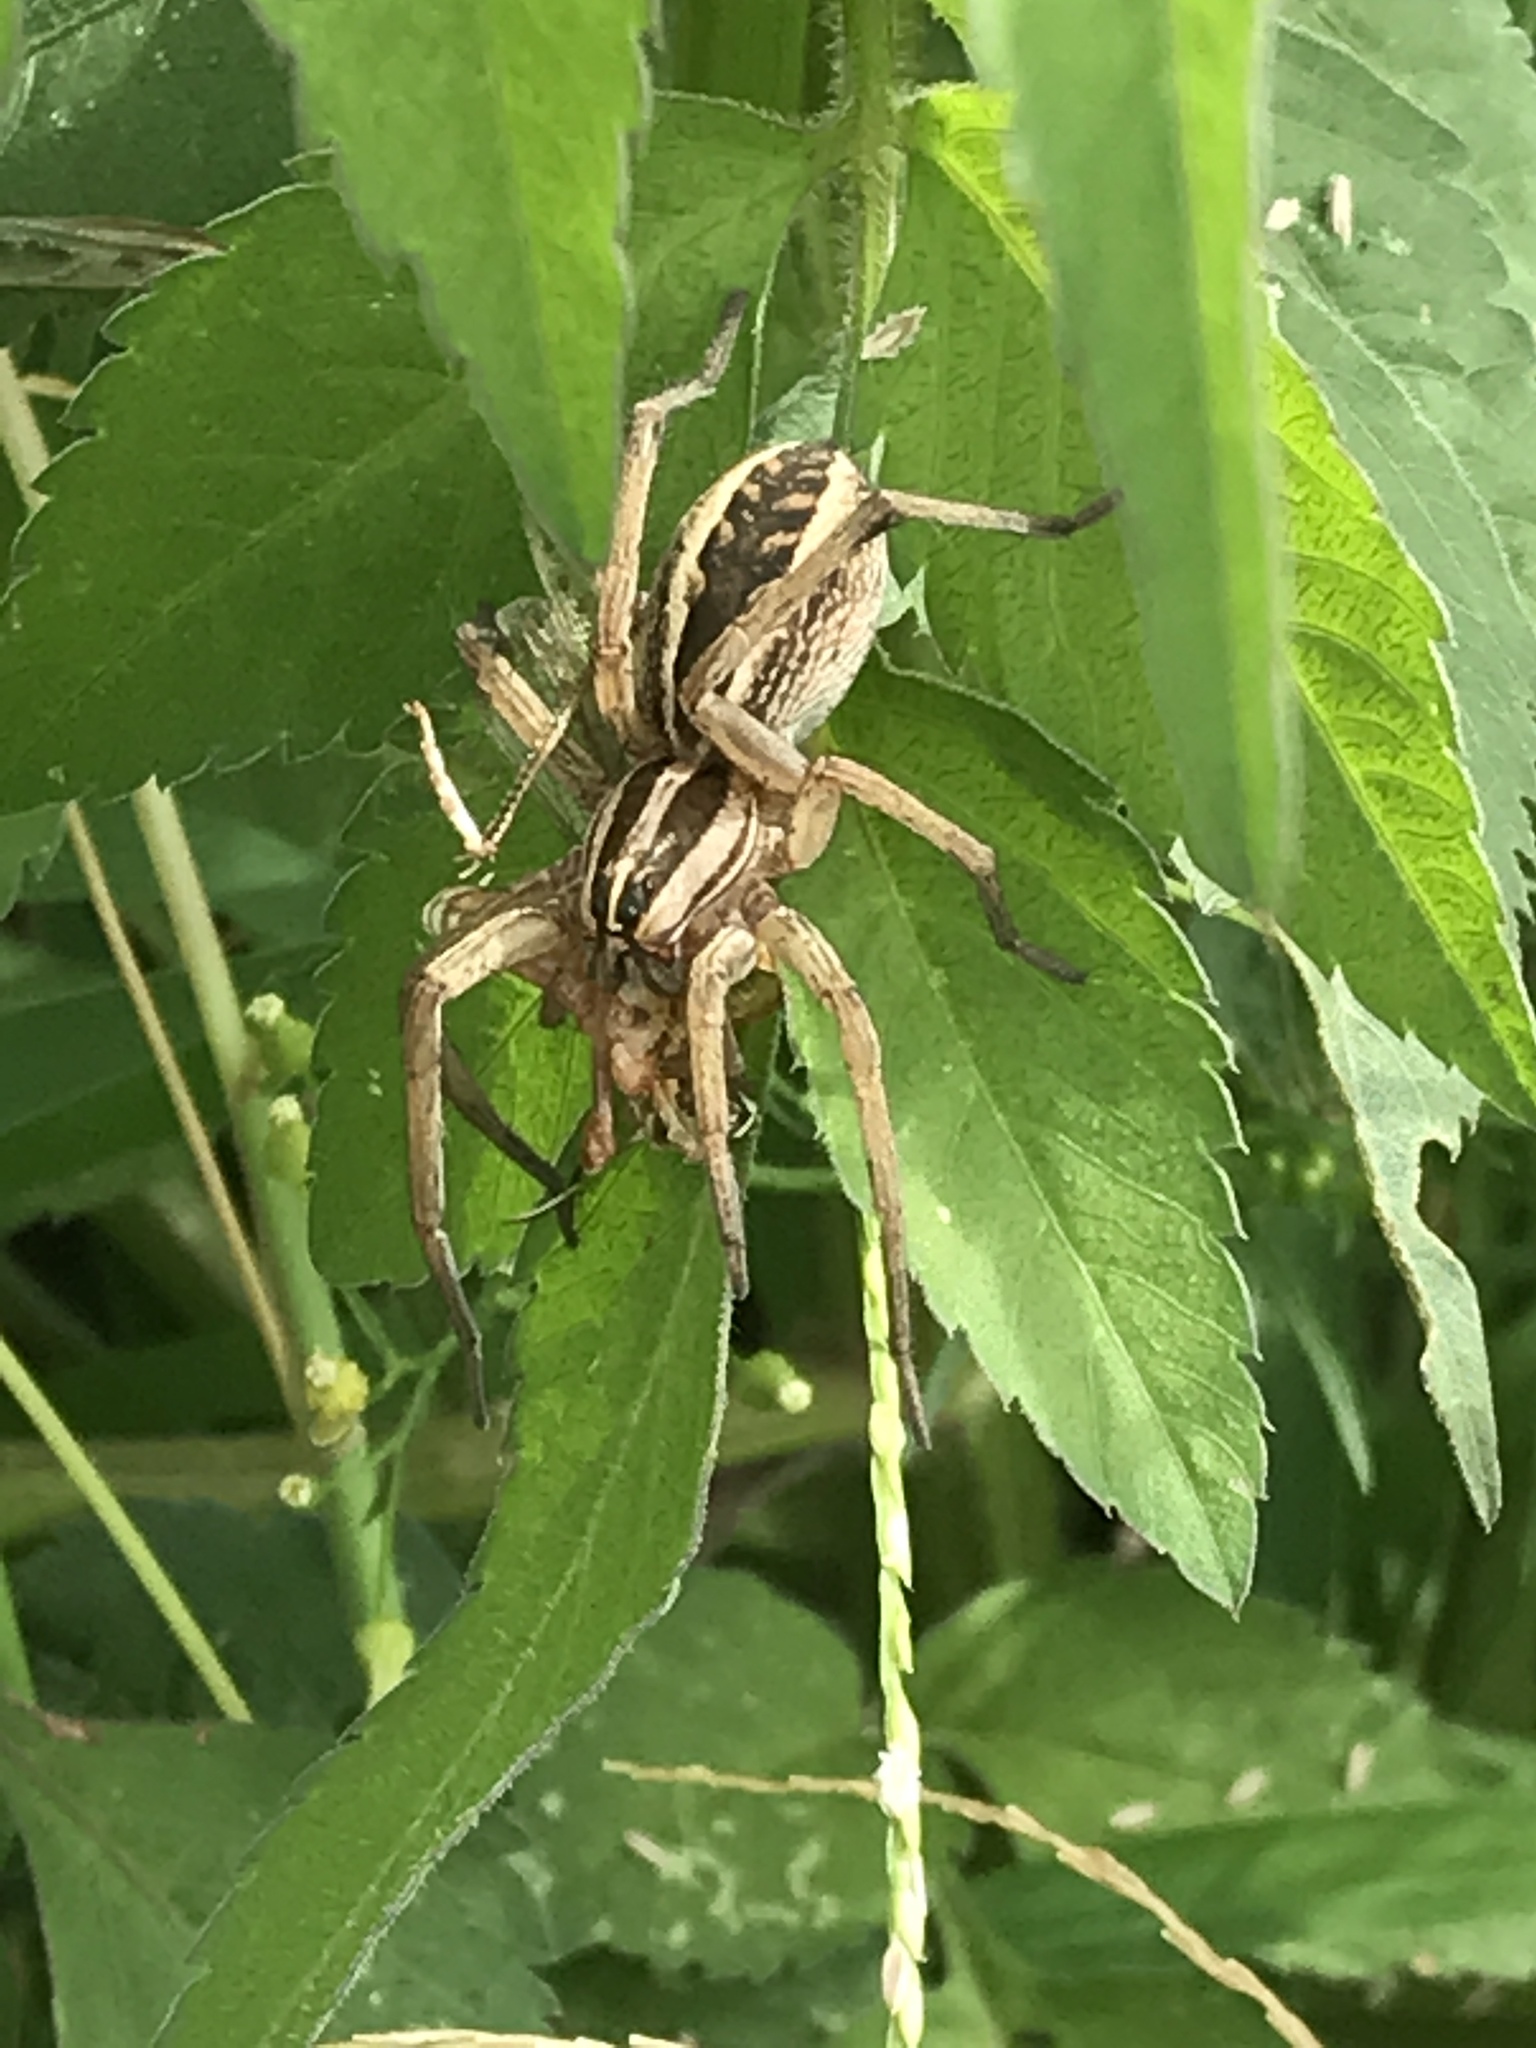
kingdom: Animalia
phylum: Arthropoda
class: Arachnida
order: Araneae
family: Lycosidae
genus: Rabidosa
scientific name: Rabidosa rabida
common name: Rabid wolf spider
